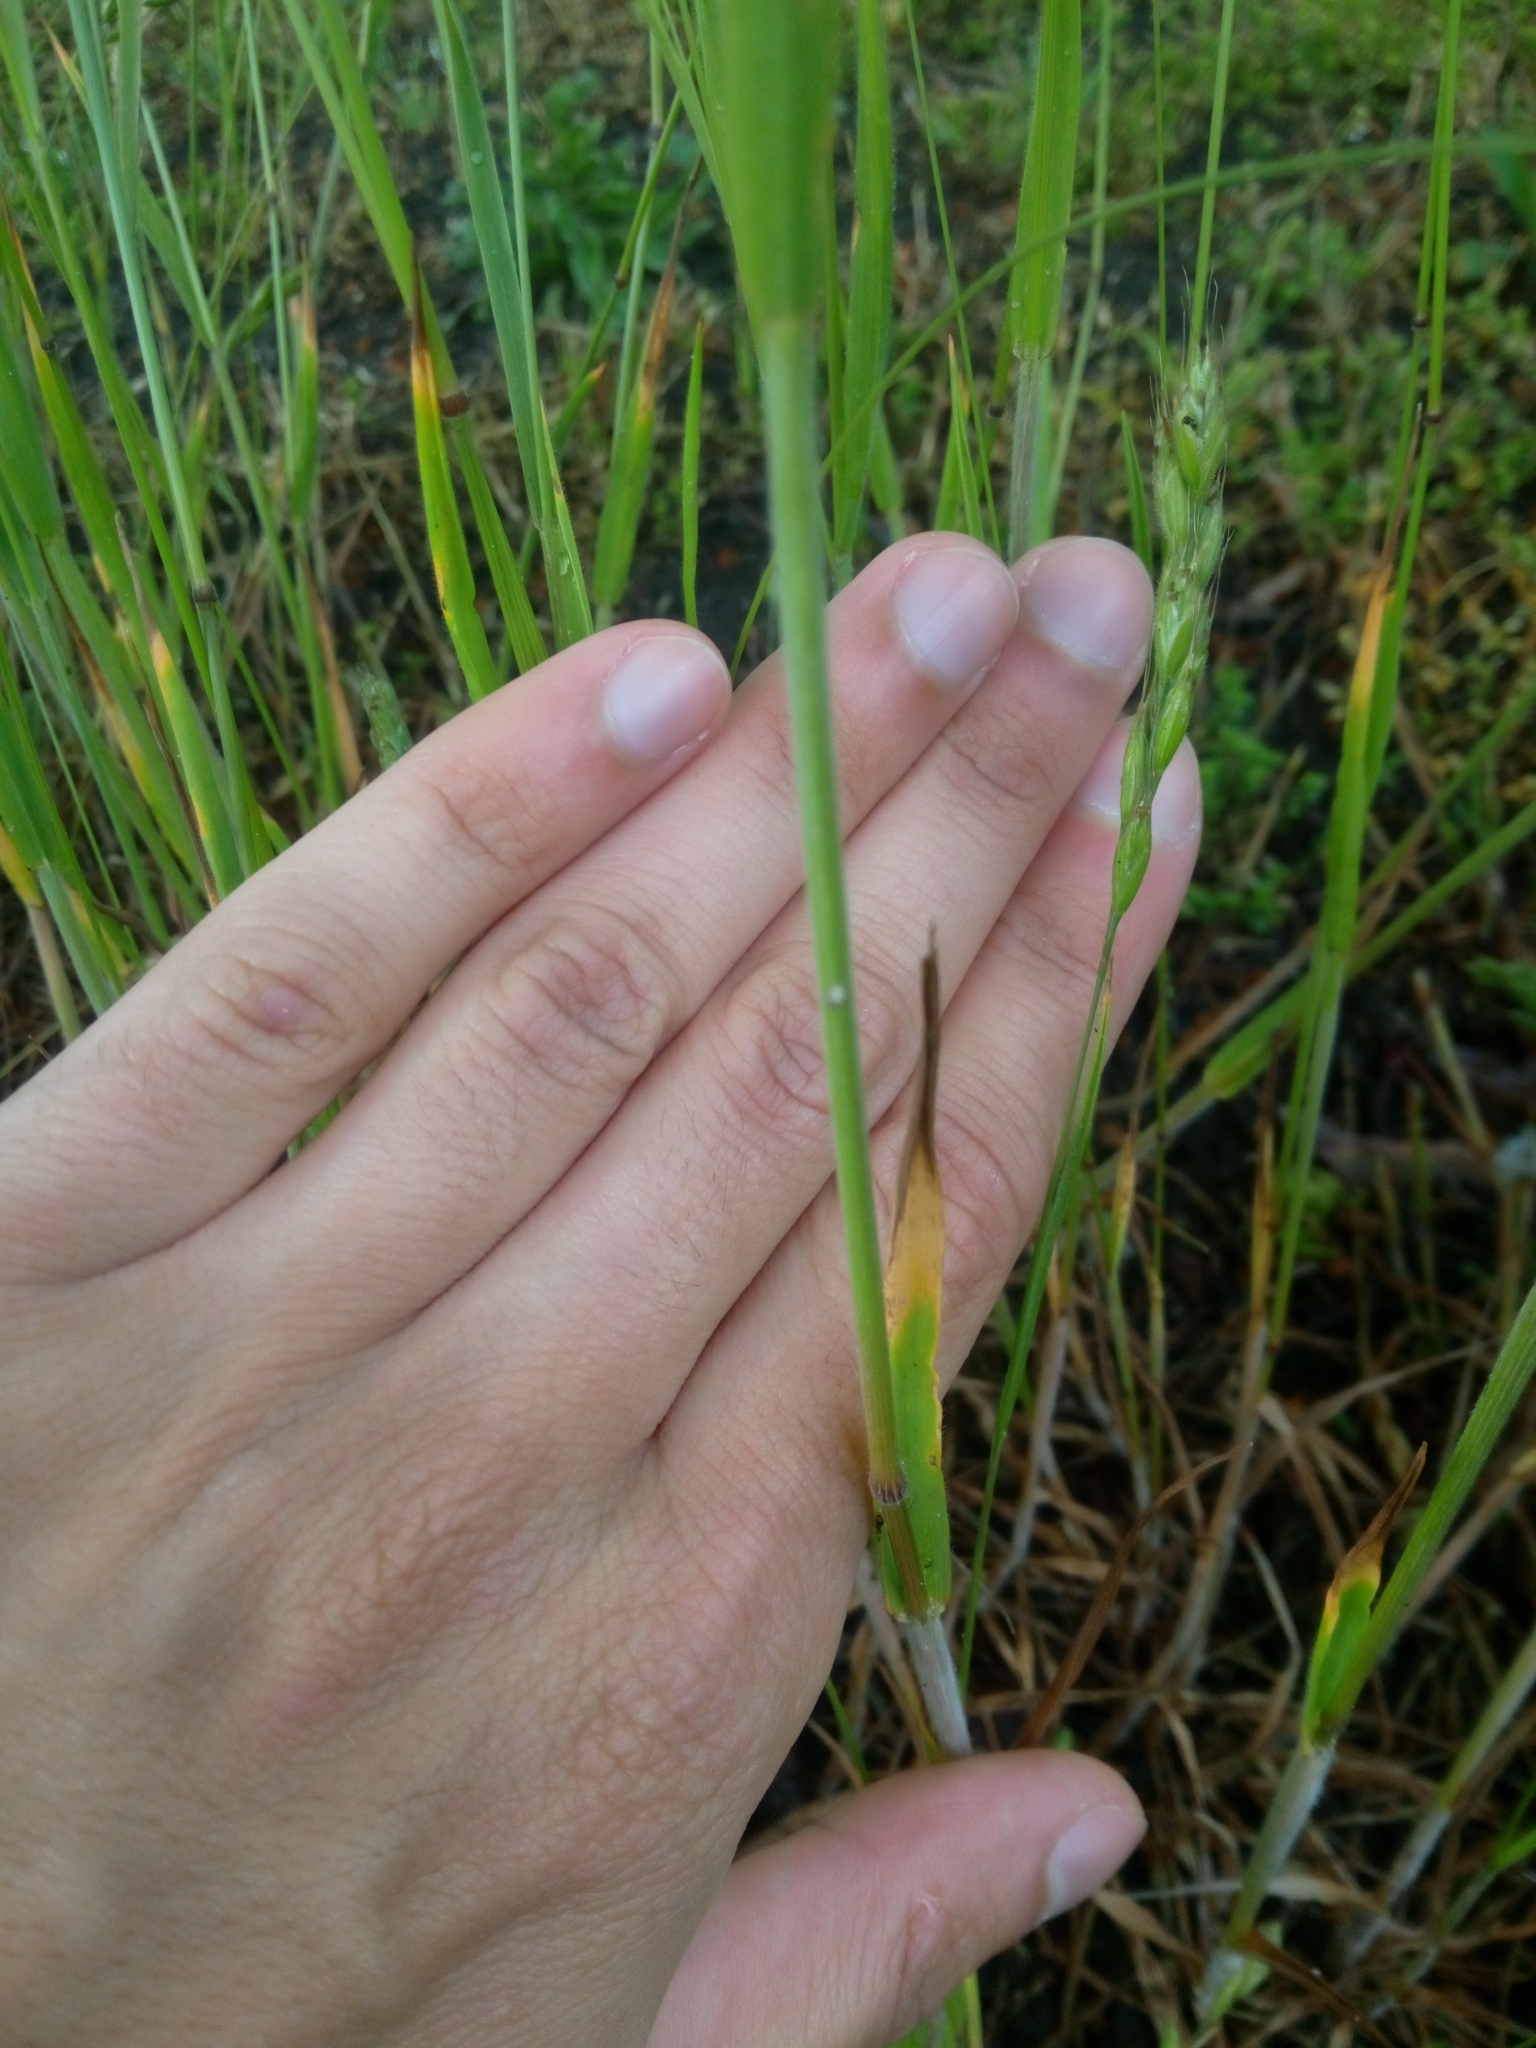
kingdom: Plantae
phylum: Tracheophyta
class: Liliopsida
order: Poales
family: Poaceae
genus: Bromus
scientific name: Bromus hordeaceus
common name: Soft brome
